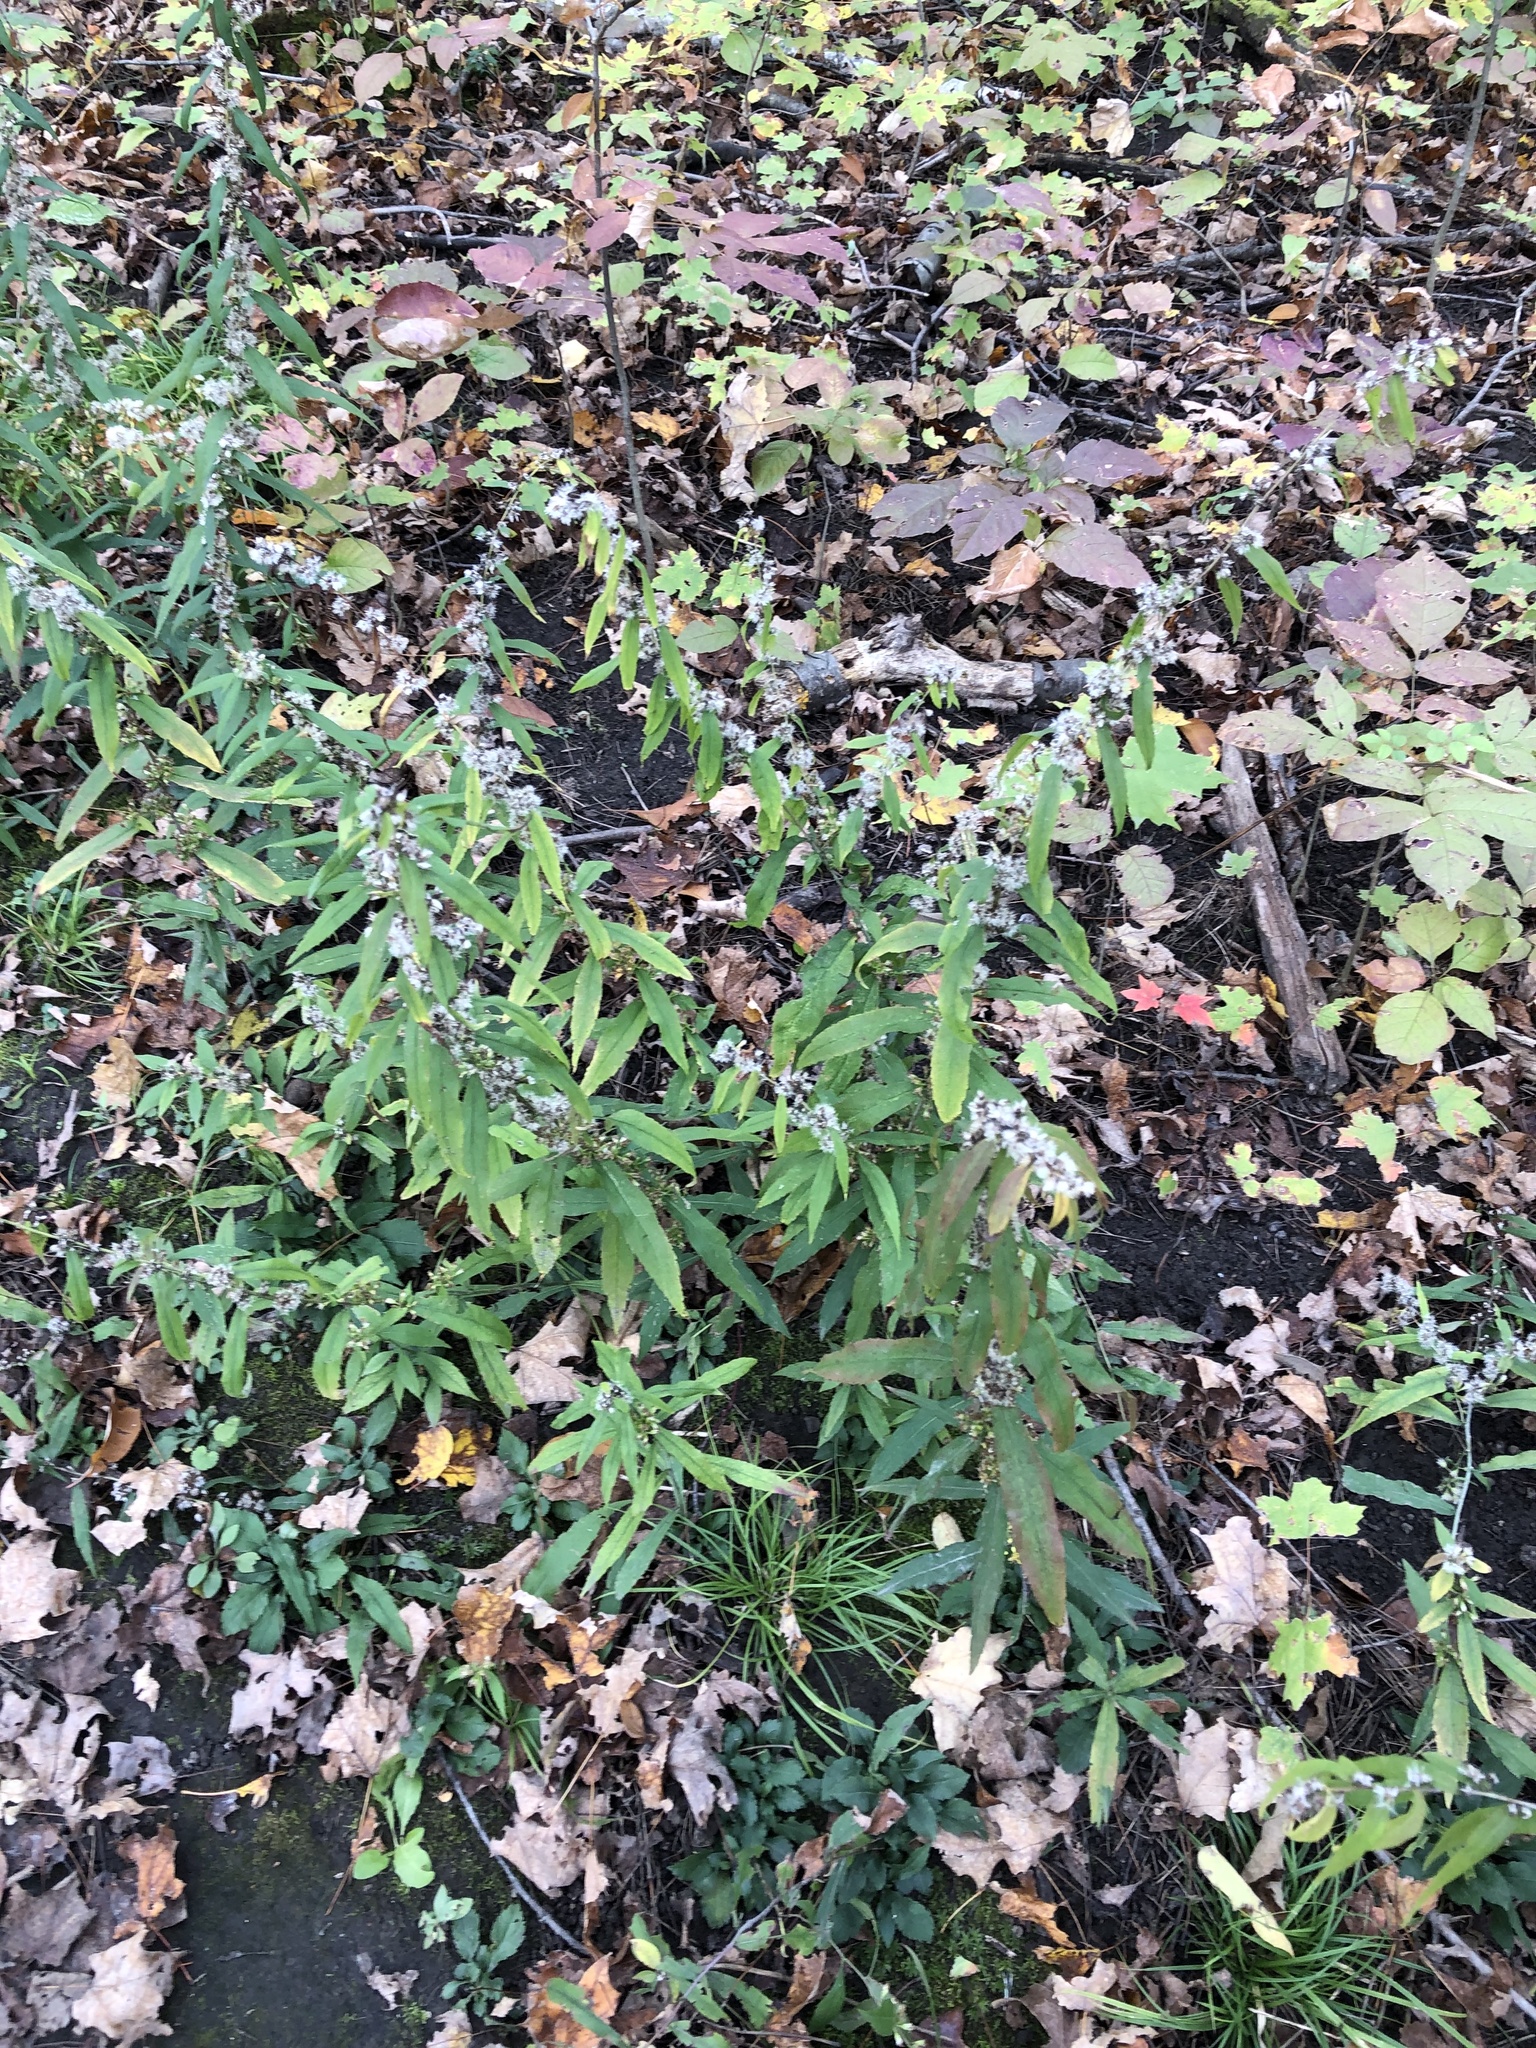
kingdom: Plantae
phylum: Tracheophyta
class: Magnoliopsida
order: Asterales
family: Asteraceae
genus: Solidago
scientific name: Solidago caesia
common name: Woodland goldenrod
